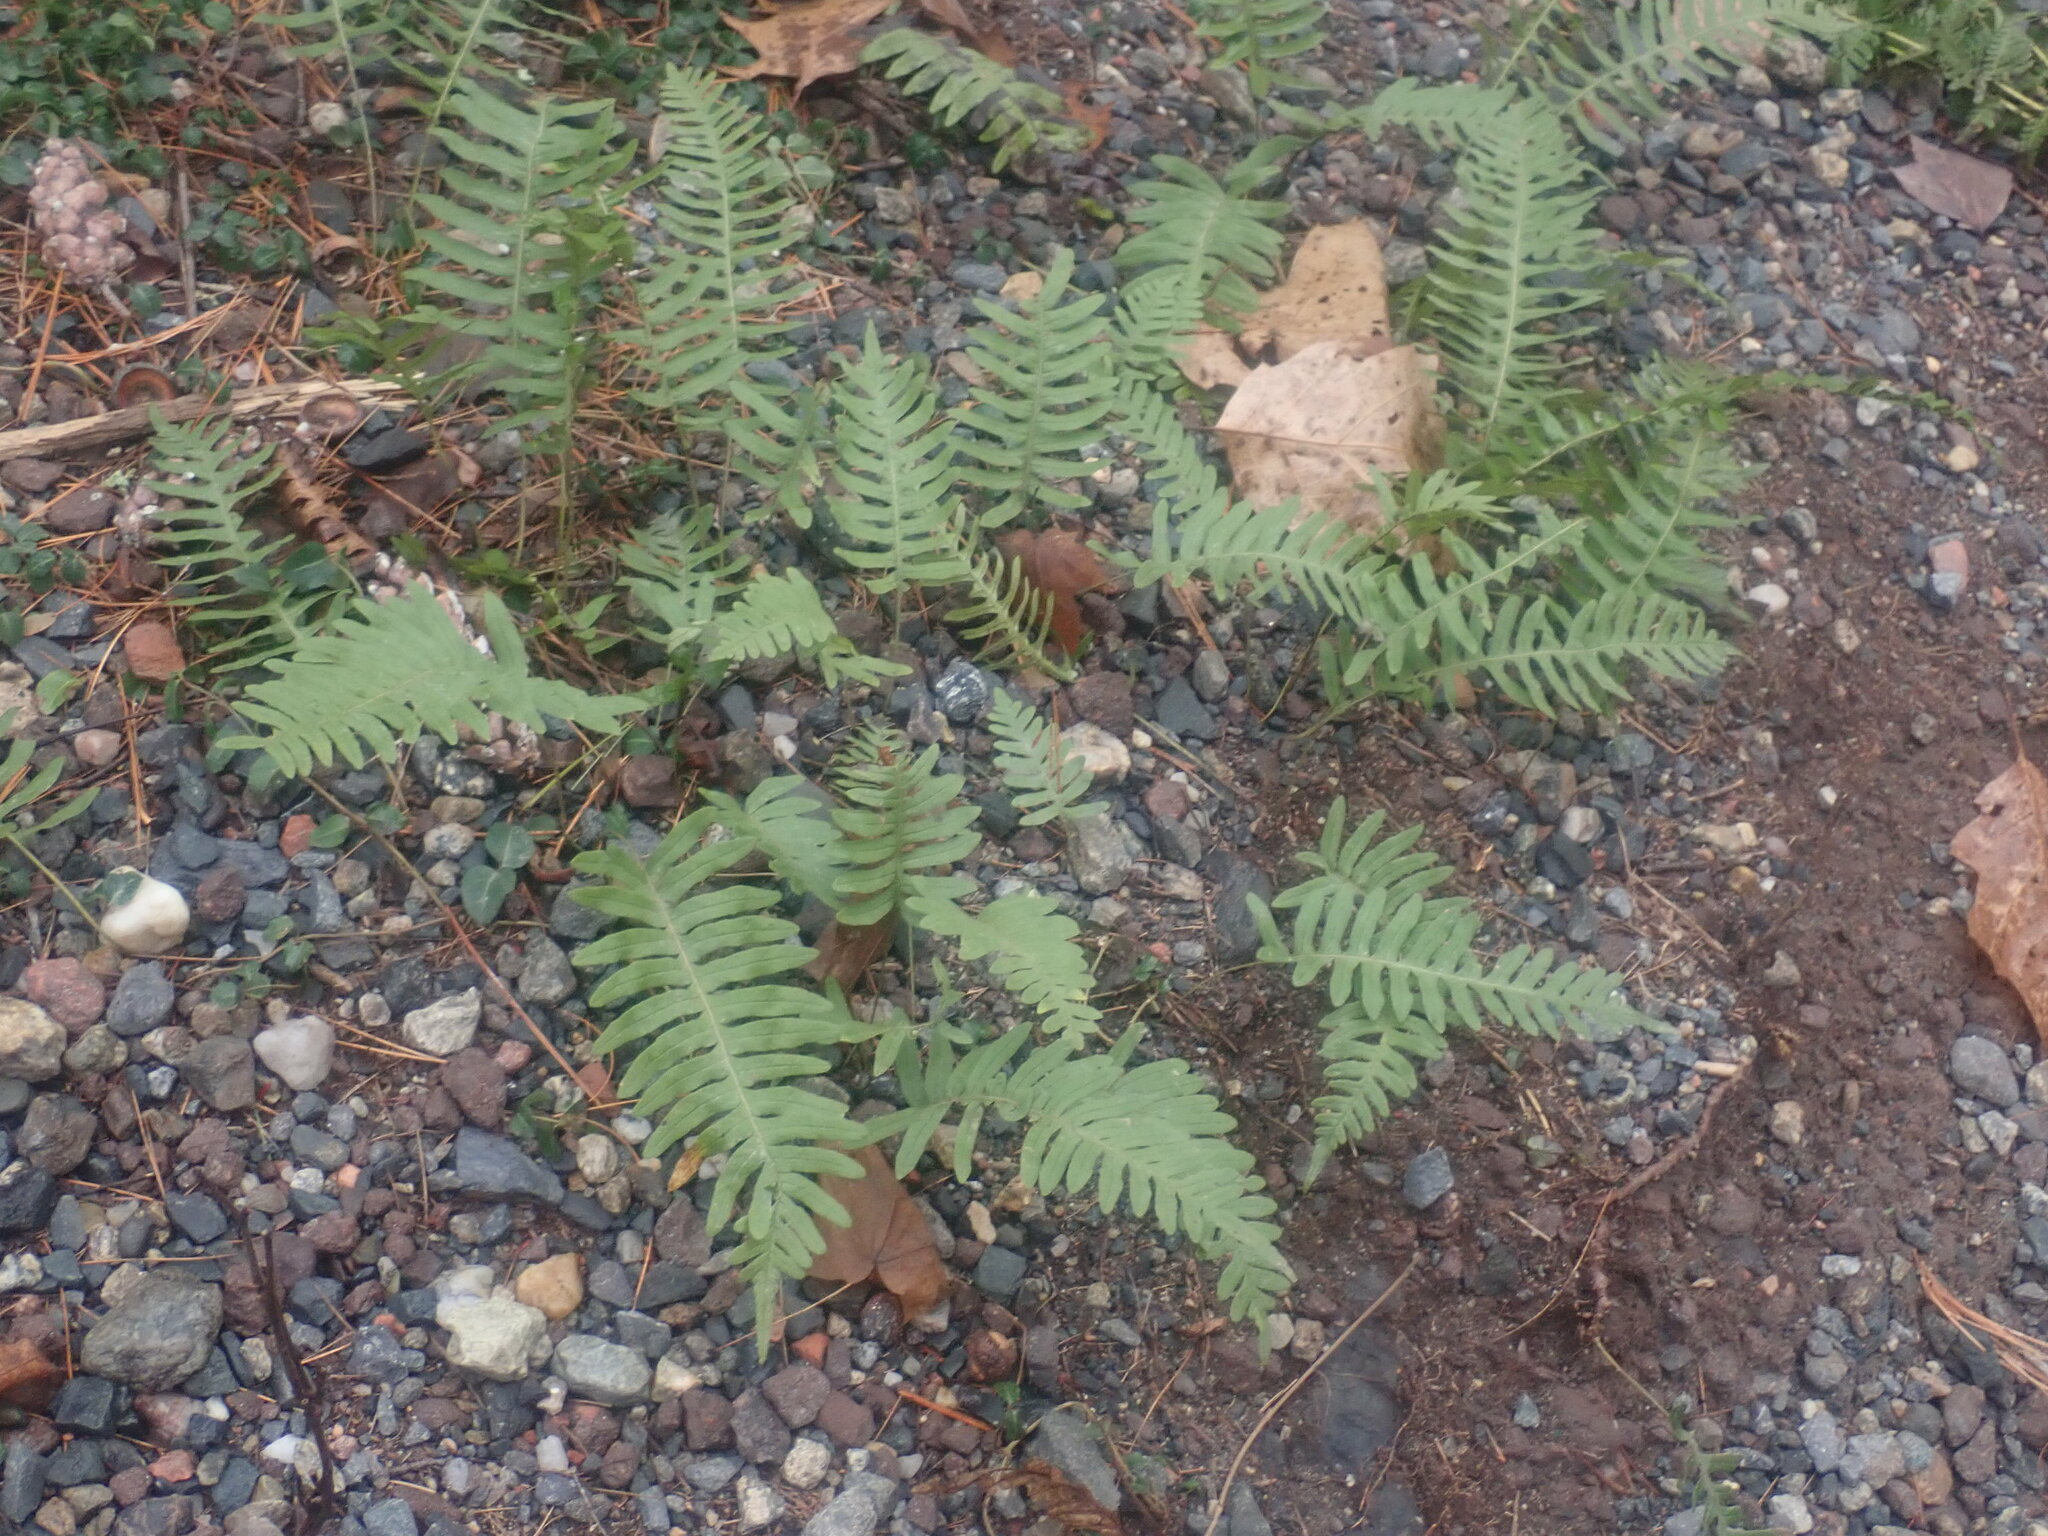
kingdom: Plantae
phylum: Tracheophyta
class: Polypodiopsida
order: Polypodiales
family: Polypodiaceae
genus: Polypodium
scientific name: Polypodium
